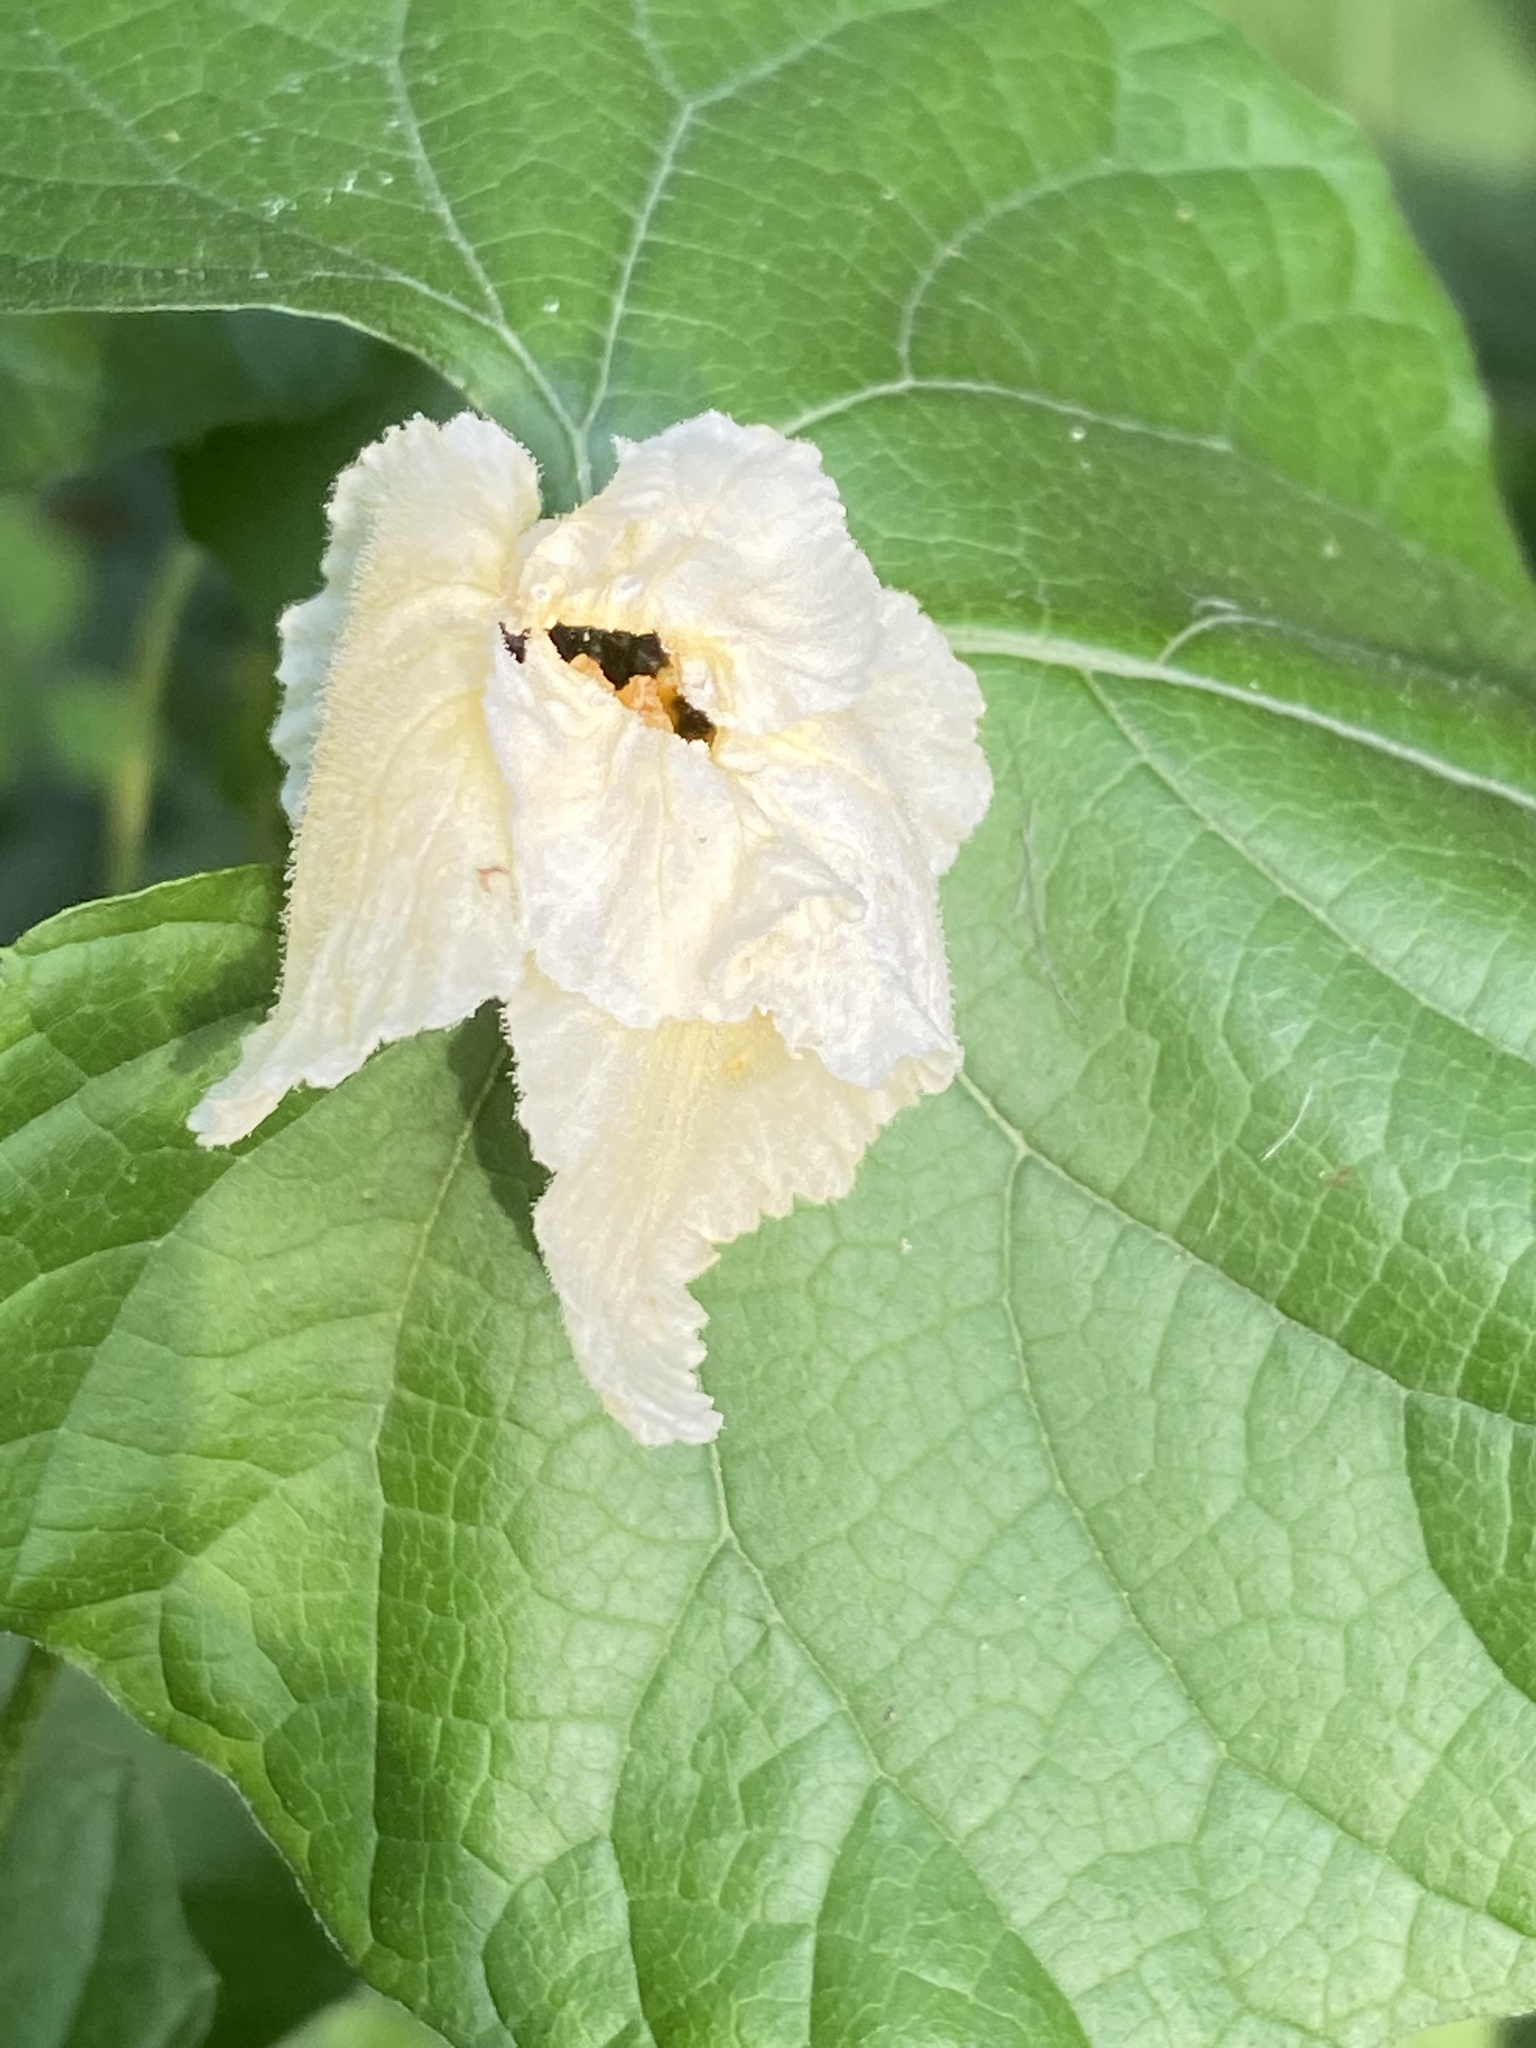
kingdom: Plantae
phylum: Tracheophyta
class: Magnoliopsida
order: Cucurbitales
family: Cucurbitaceae
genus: Momordica
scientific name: Momordica foetida
